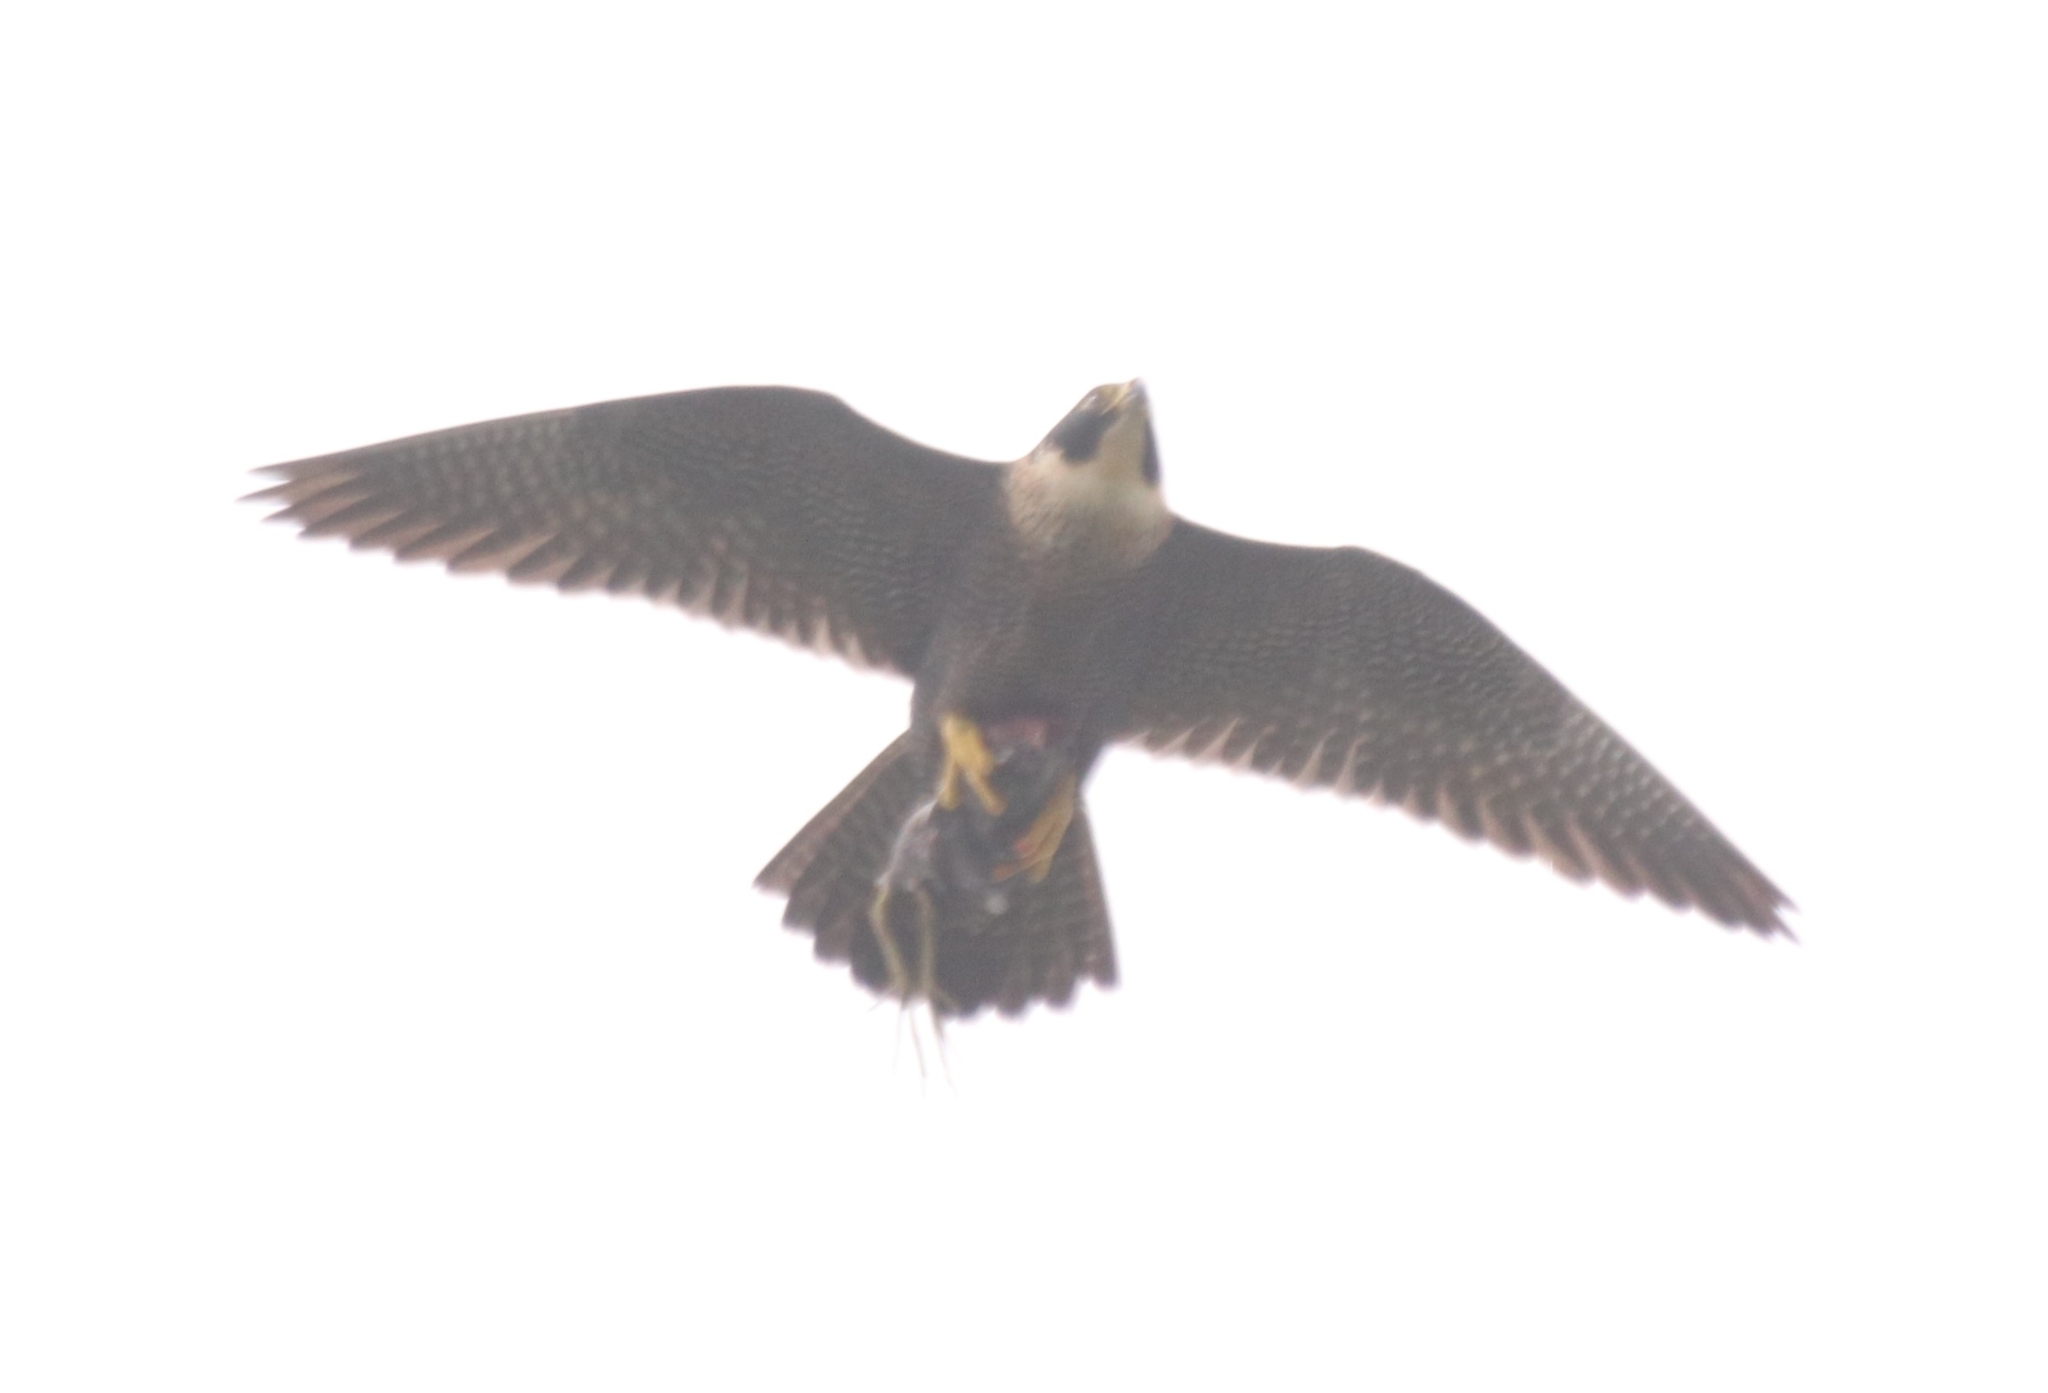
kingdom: Animalia
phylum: Chordata
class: Aves
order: Falconiformes
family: Falconidae
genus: Falco
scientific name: Falco peregrinus
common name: Peregrine falcon
